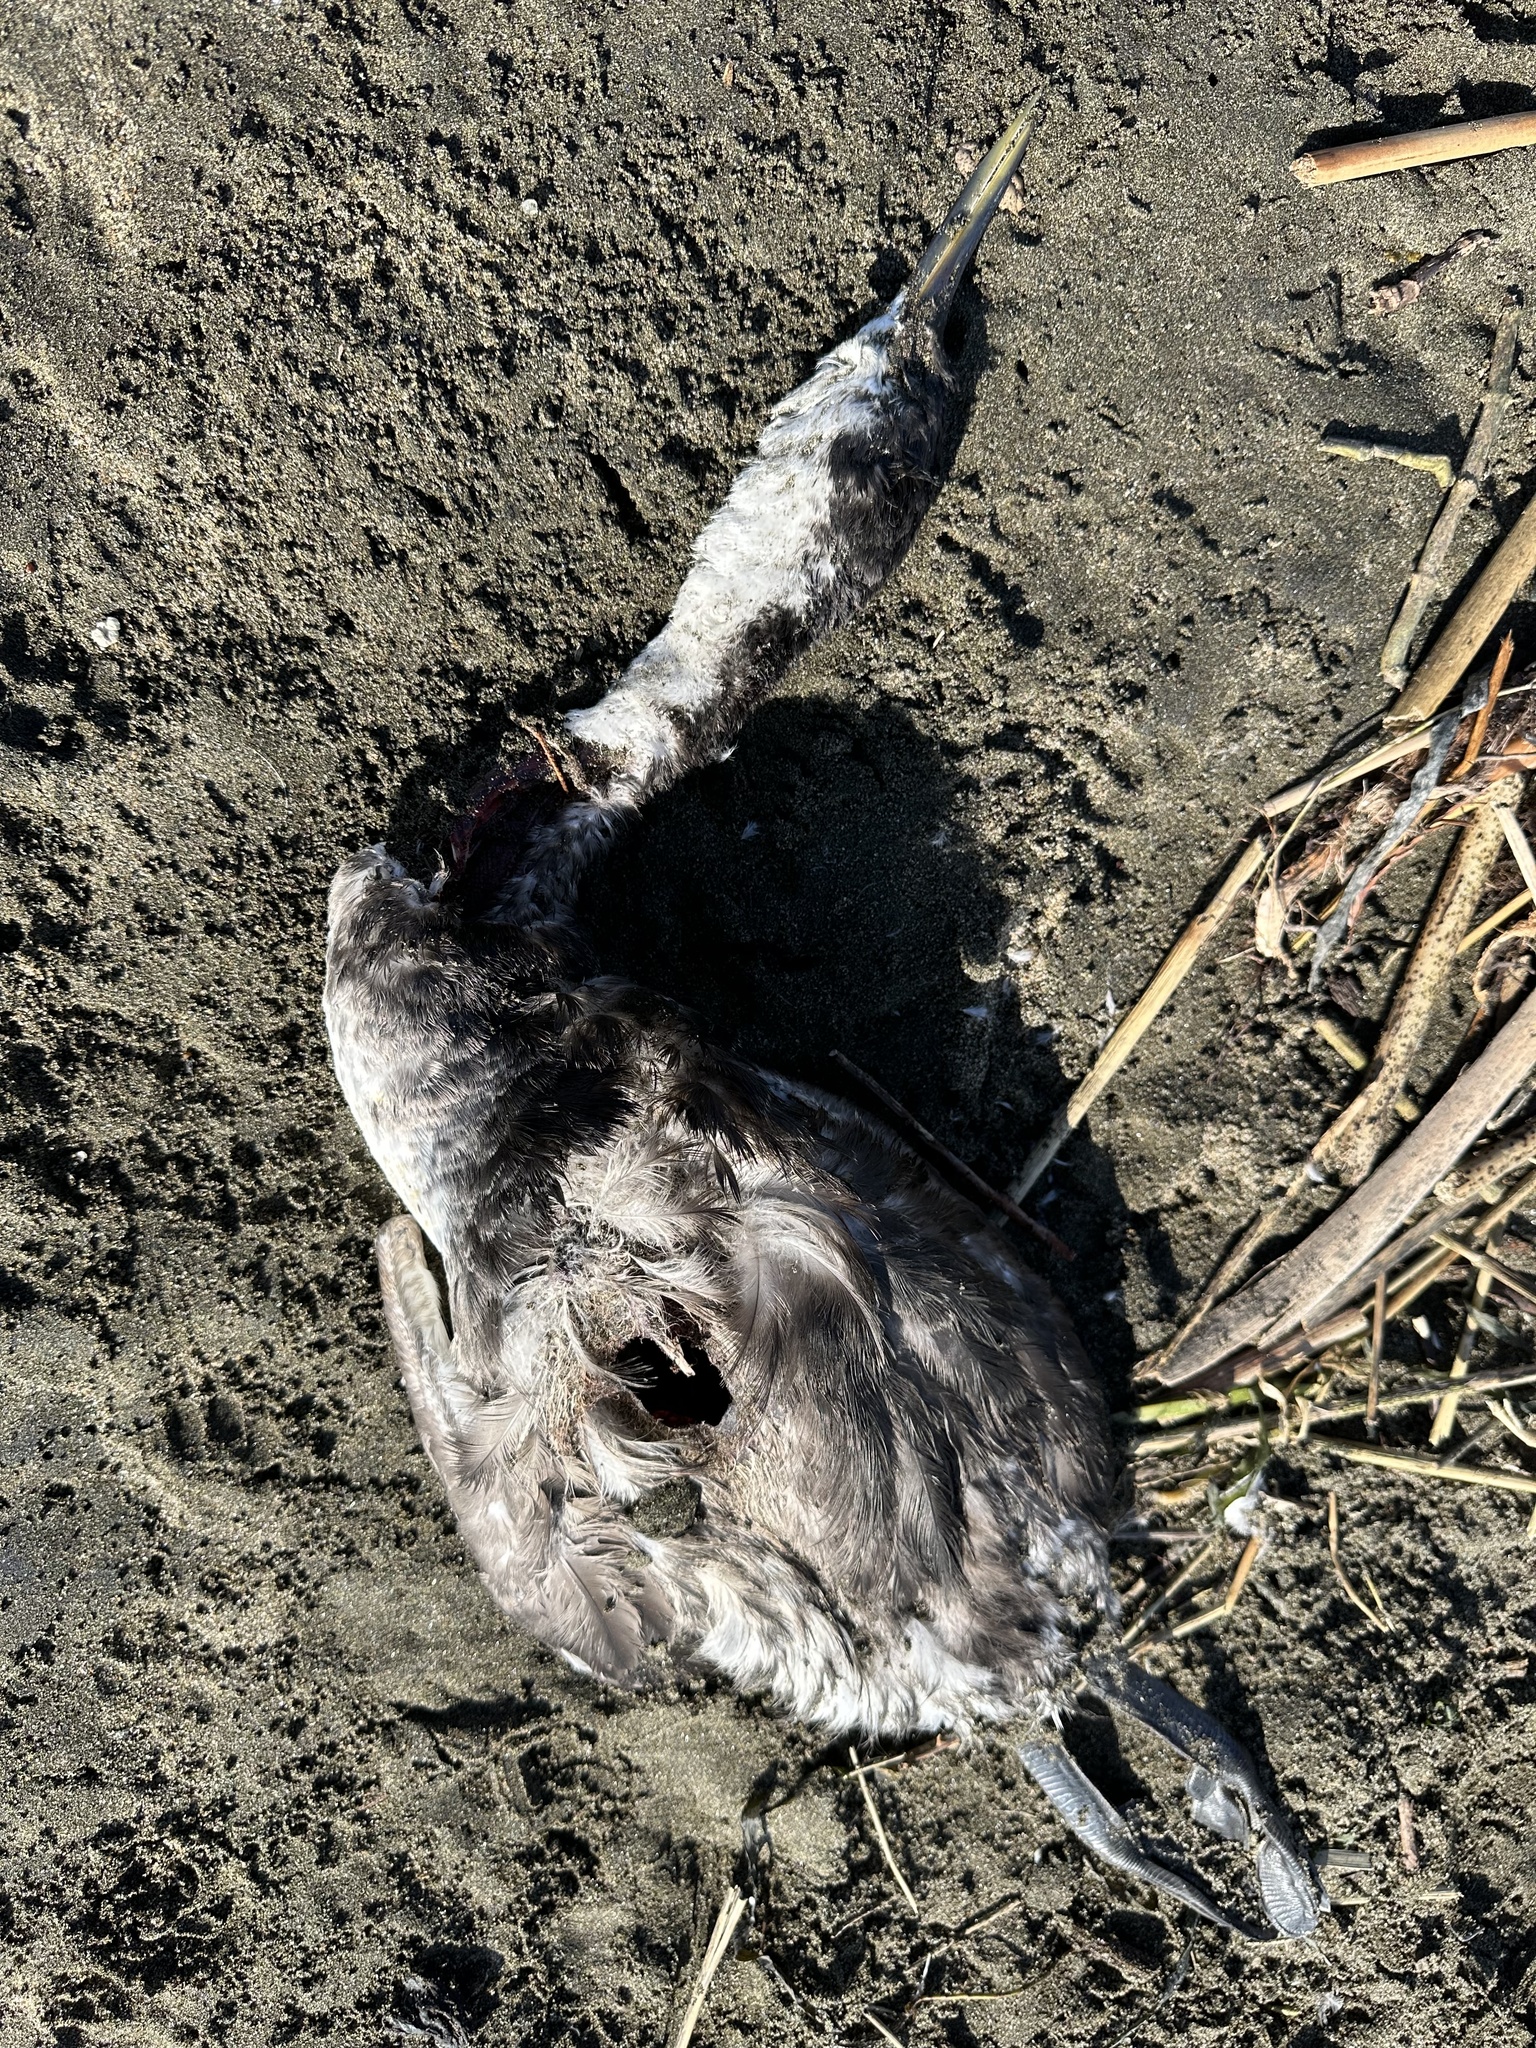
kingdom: Animalia
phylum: Chordata
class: Aves
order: Podicipediformes
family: Podicipedidae
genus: Aechmophorus
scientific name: Aechmophorus occidentalis
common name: Western grebe
